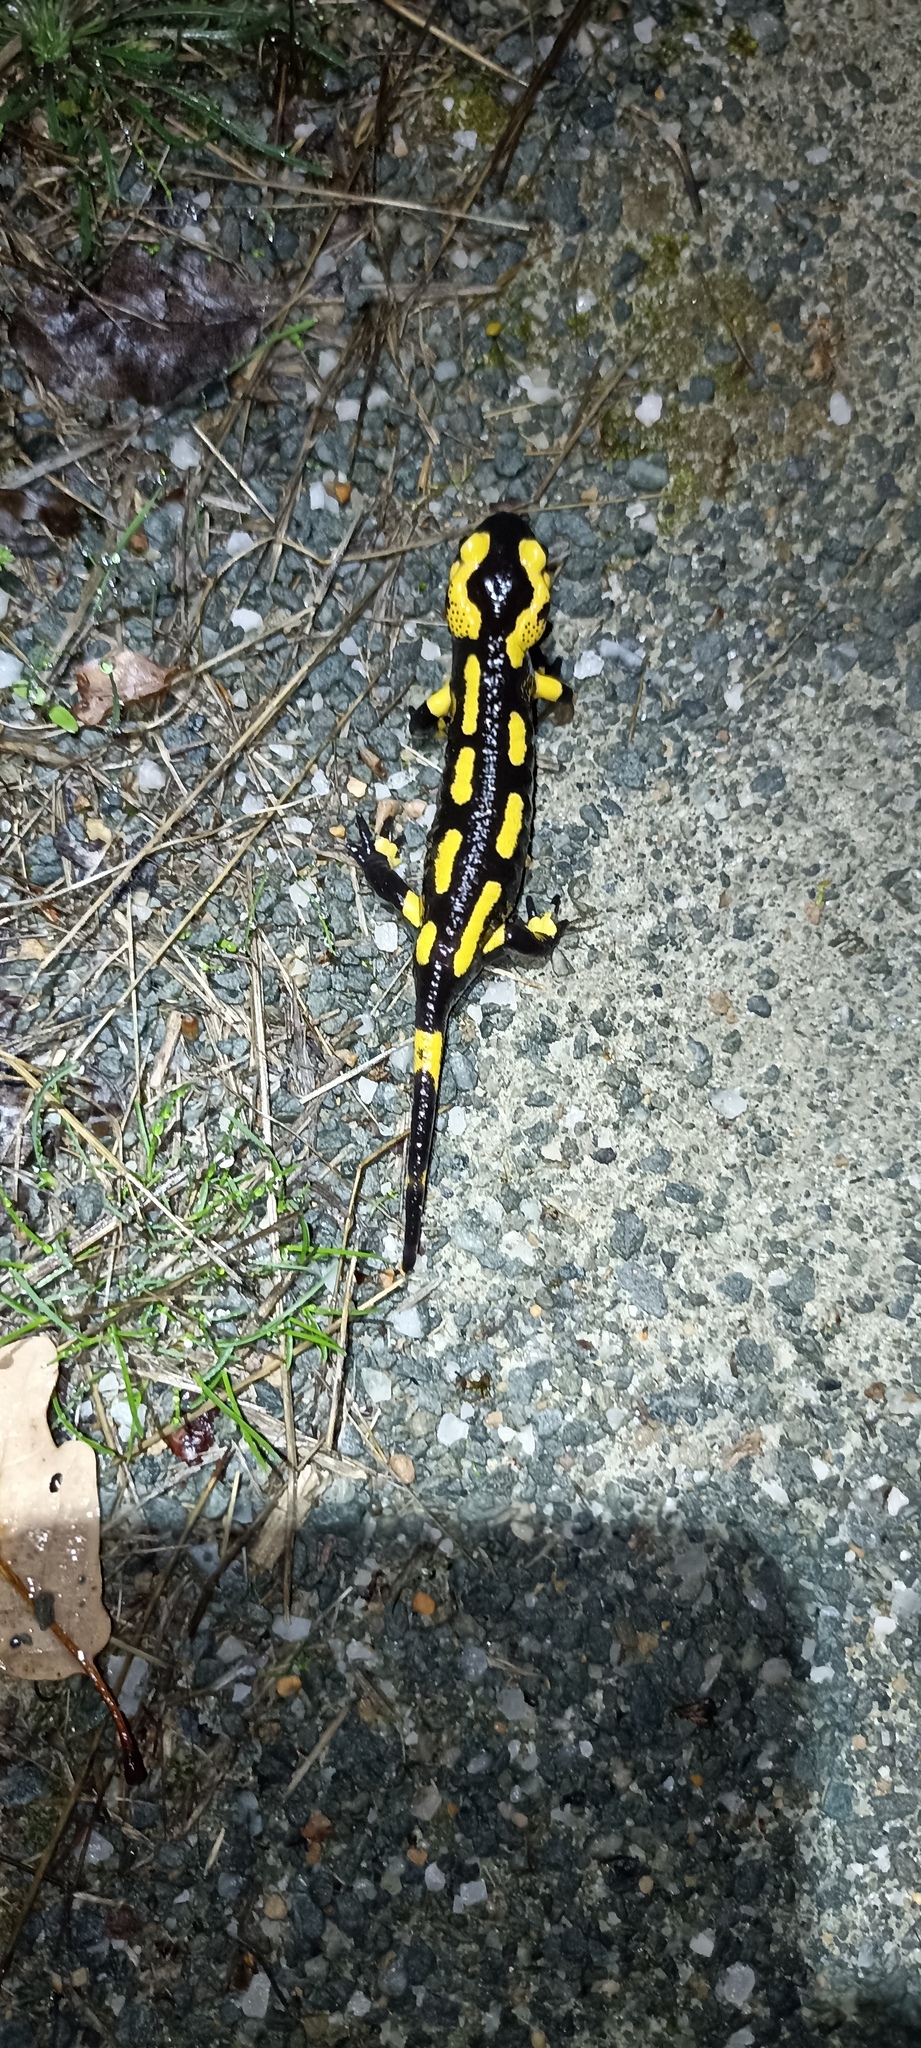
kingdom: Animalia
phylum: Chordata
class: Amphibia
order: Caudata
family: Salamandridae
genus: Salamandra
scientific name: Salamandra salamandra
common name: Fire salamander
